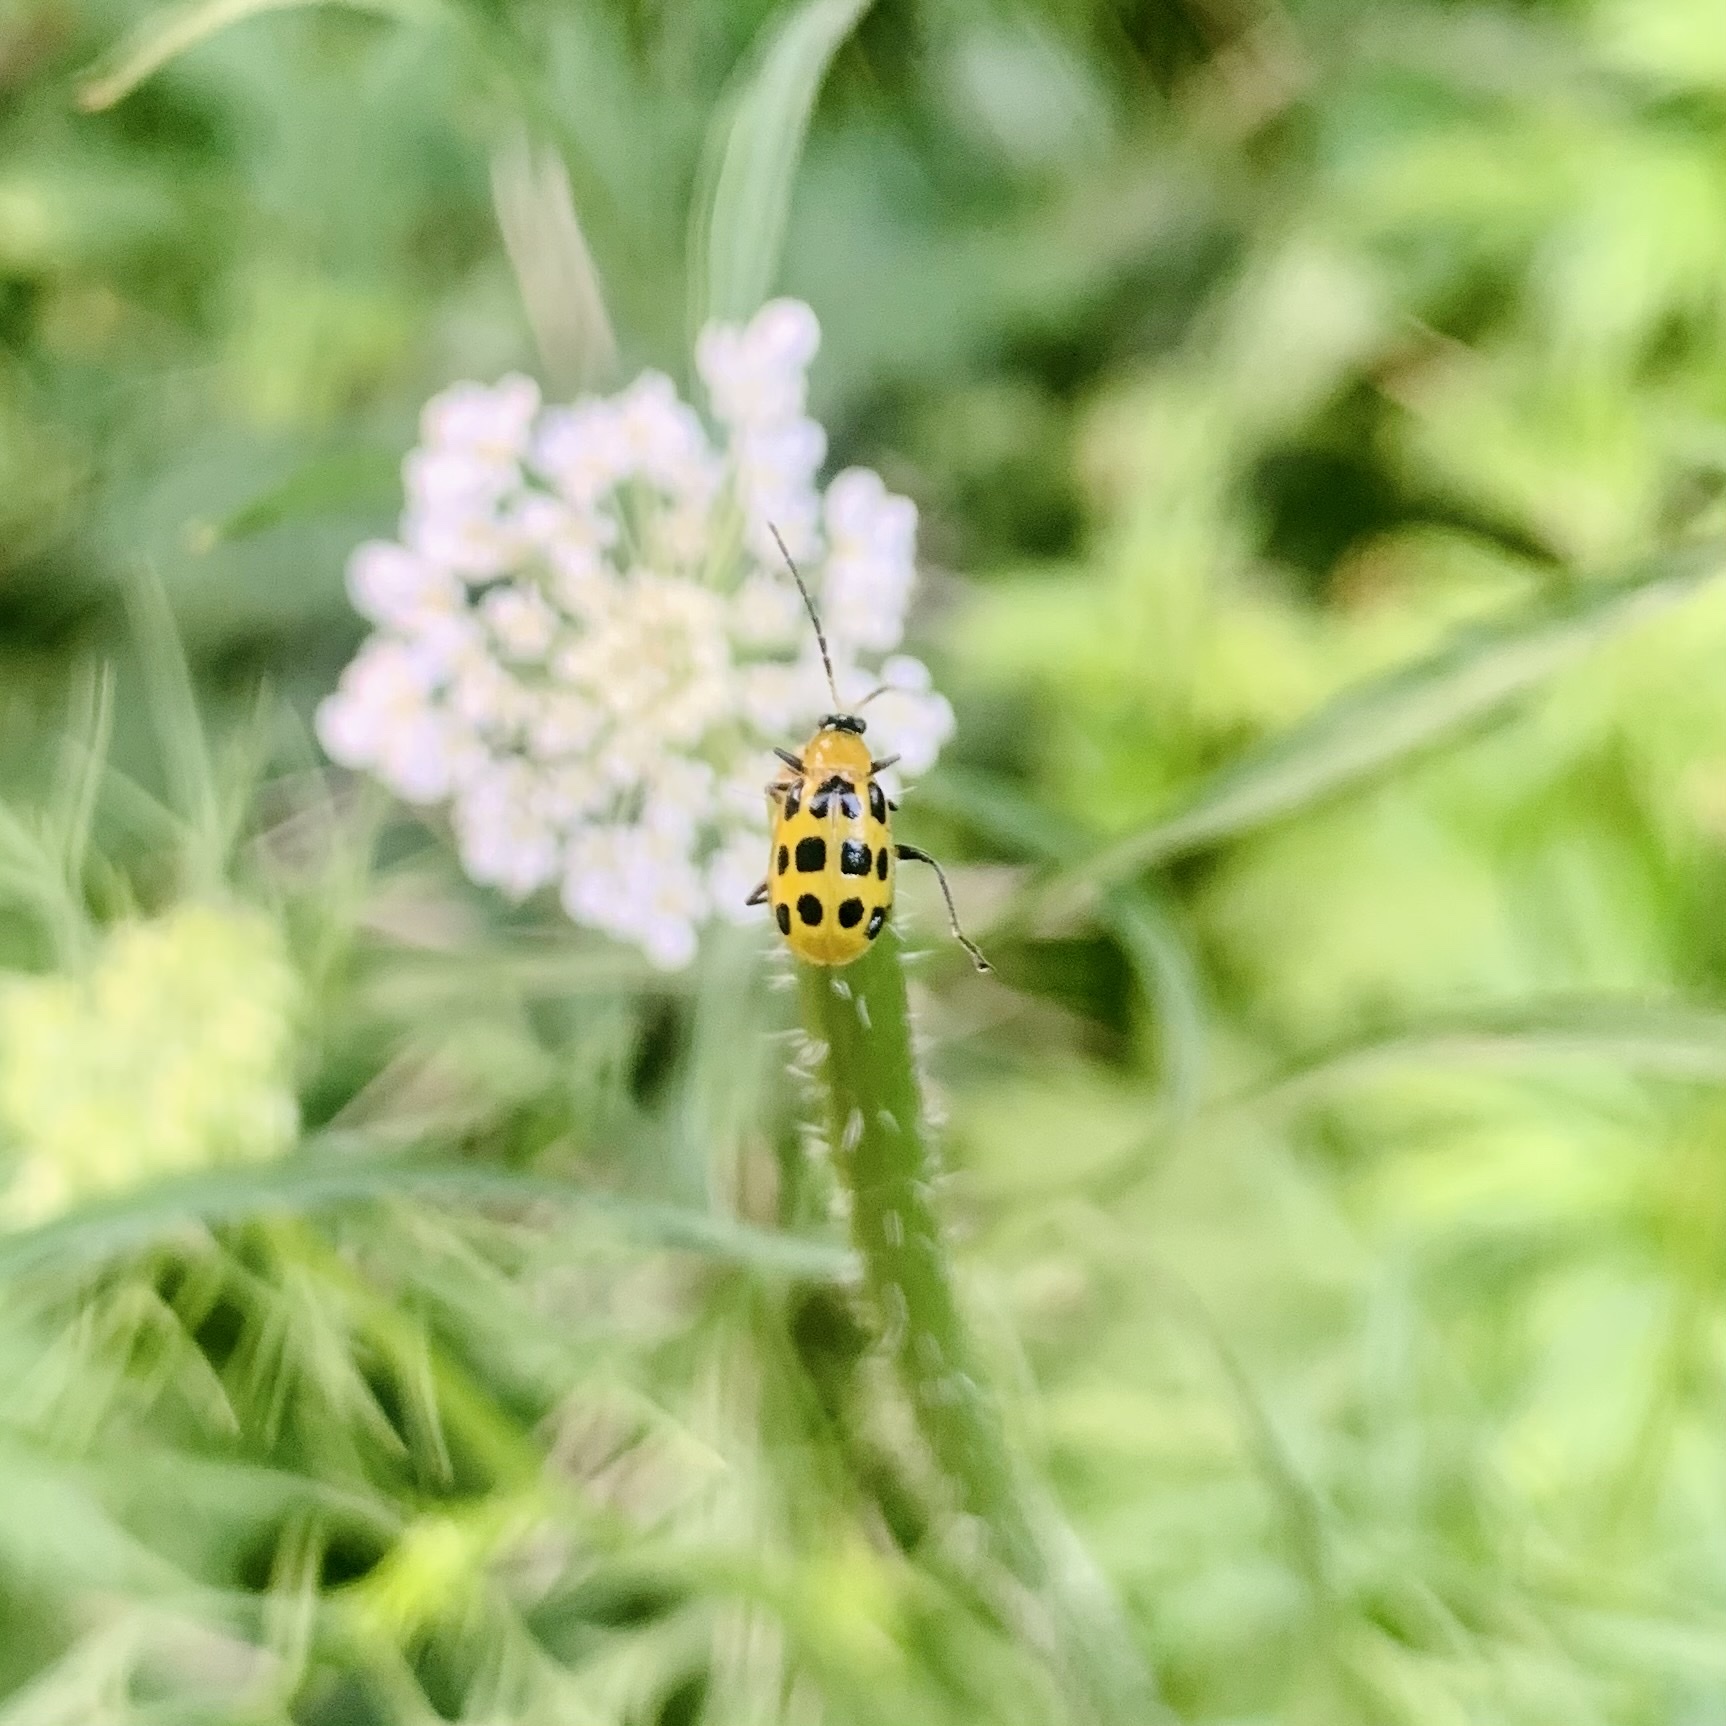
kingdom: Animalia
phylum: Arthropoda
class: Insecta
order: Coleoptera
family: Chrysomelidae
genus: Diabrotica
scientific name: Diabrotica undecimpunctata
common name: Spotted cucumber beetle
